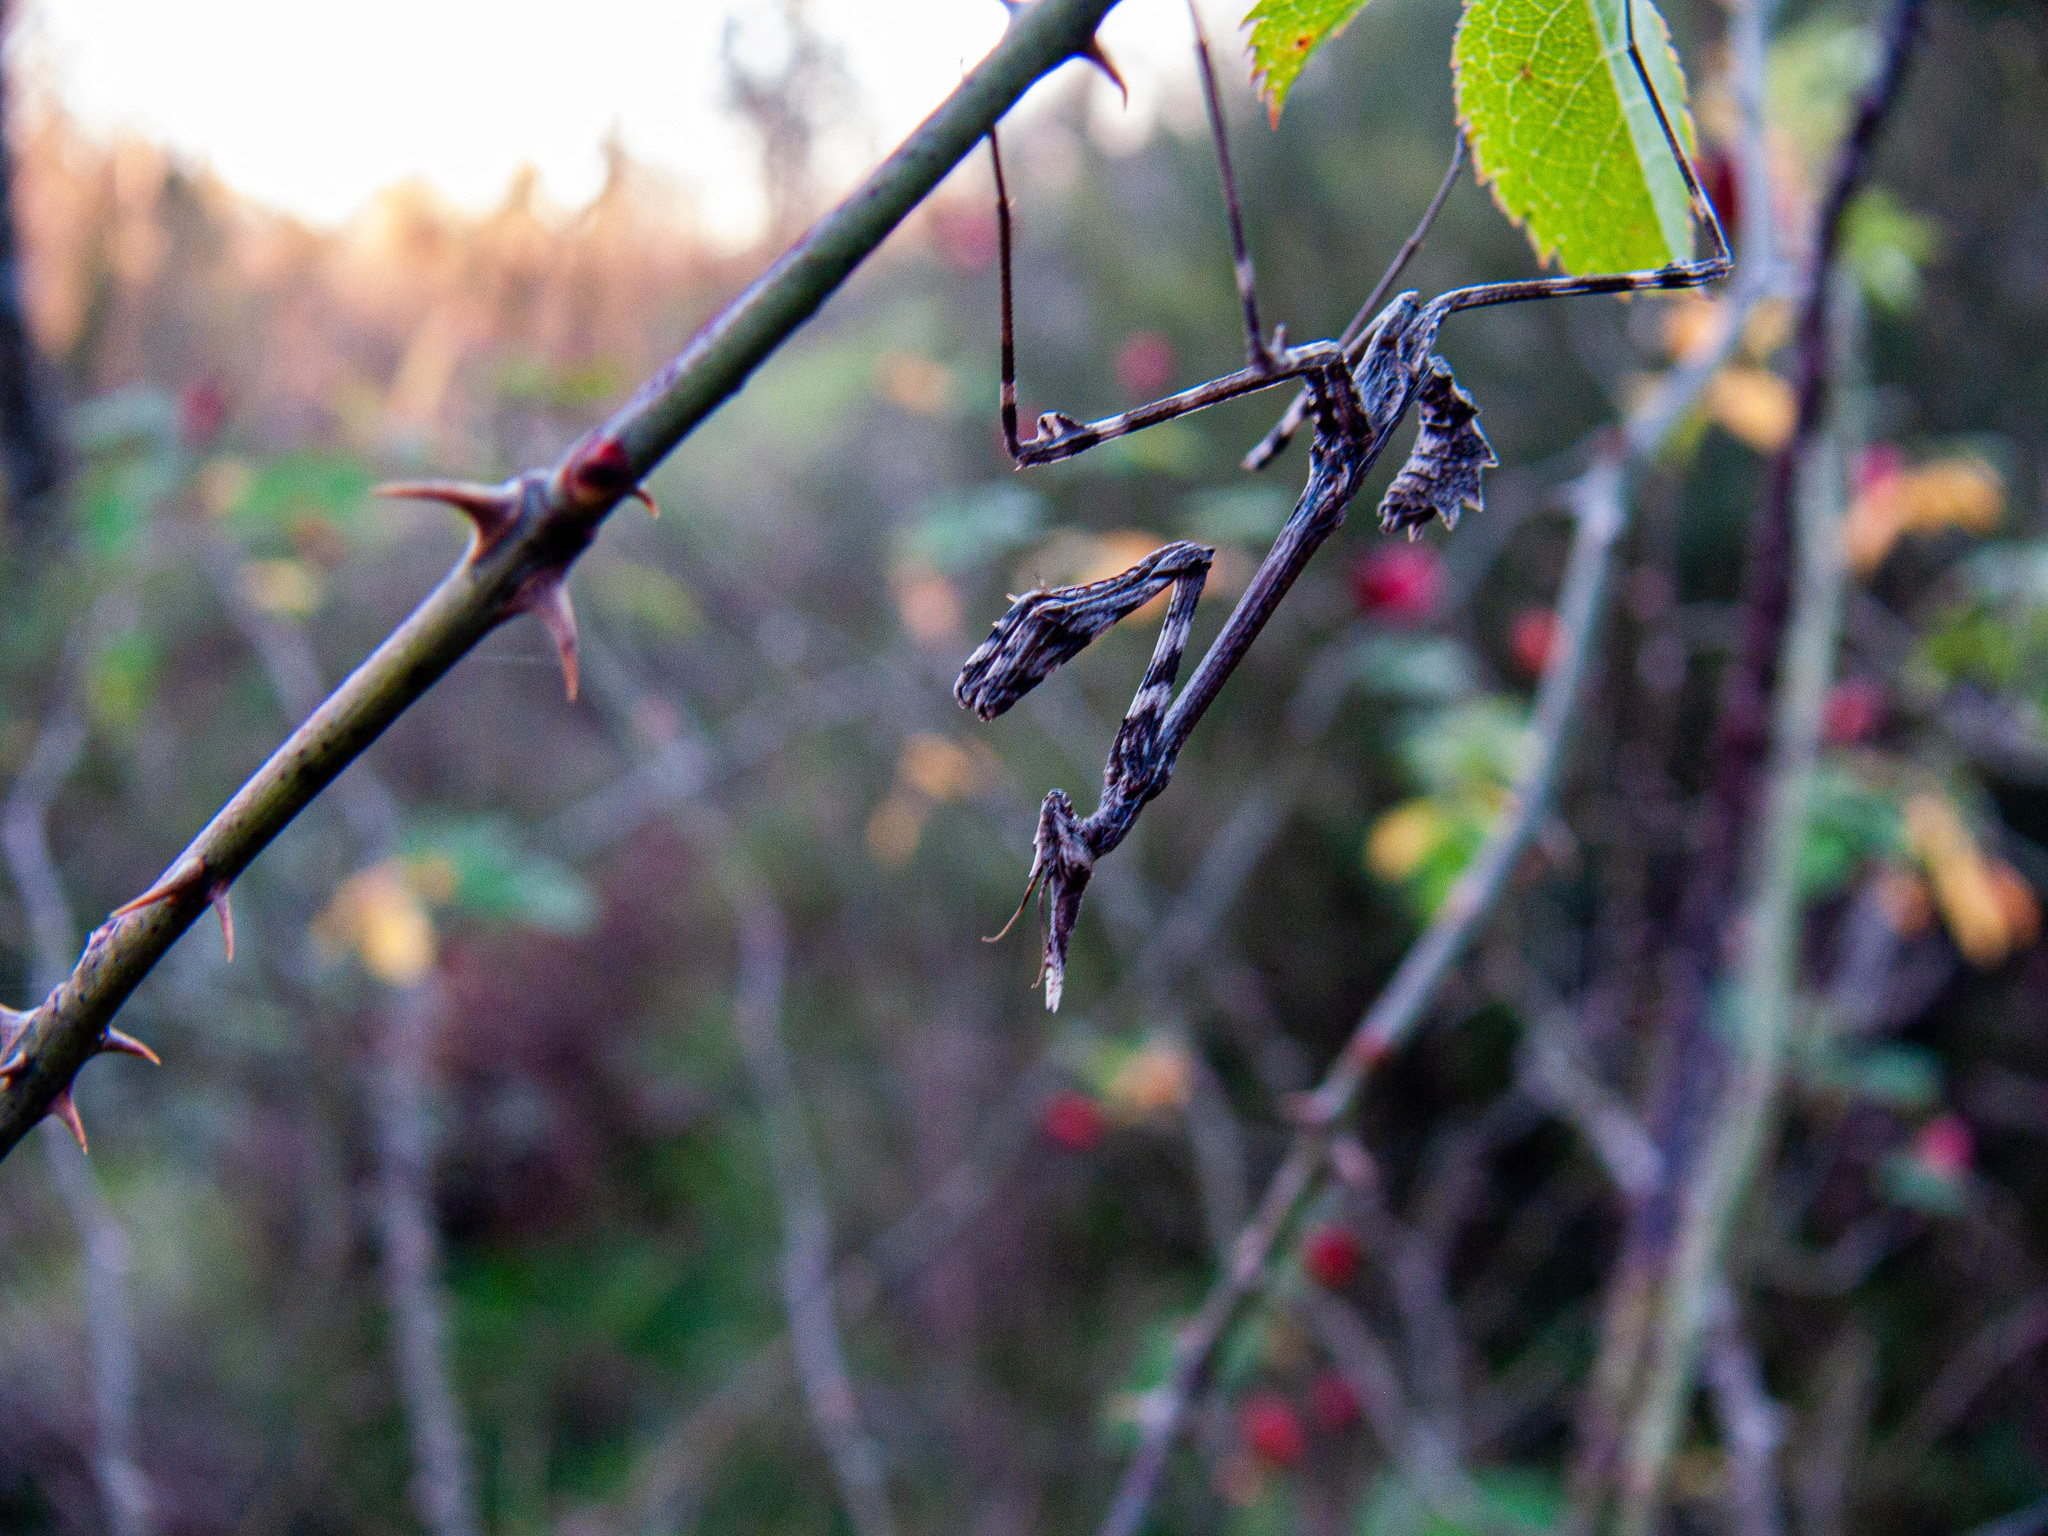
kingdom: Animalia
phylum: Arthropoda
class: Insecta
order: Mantodea
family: Empusidae
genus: Empusa
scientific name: Empusa pennata
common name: Conehead mantis
